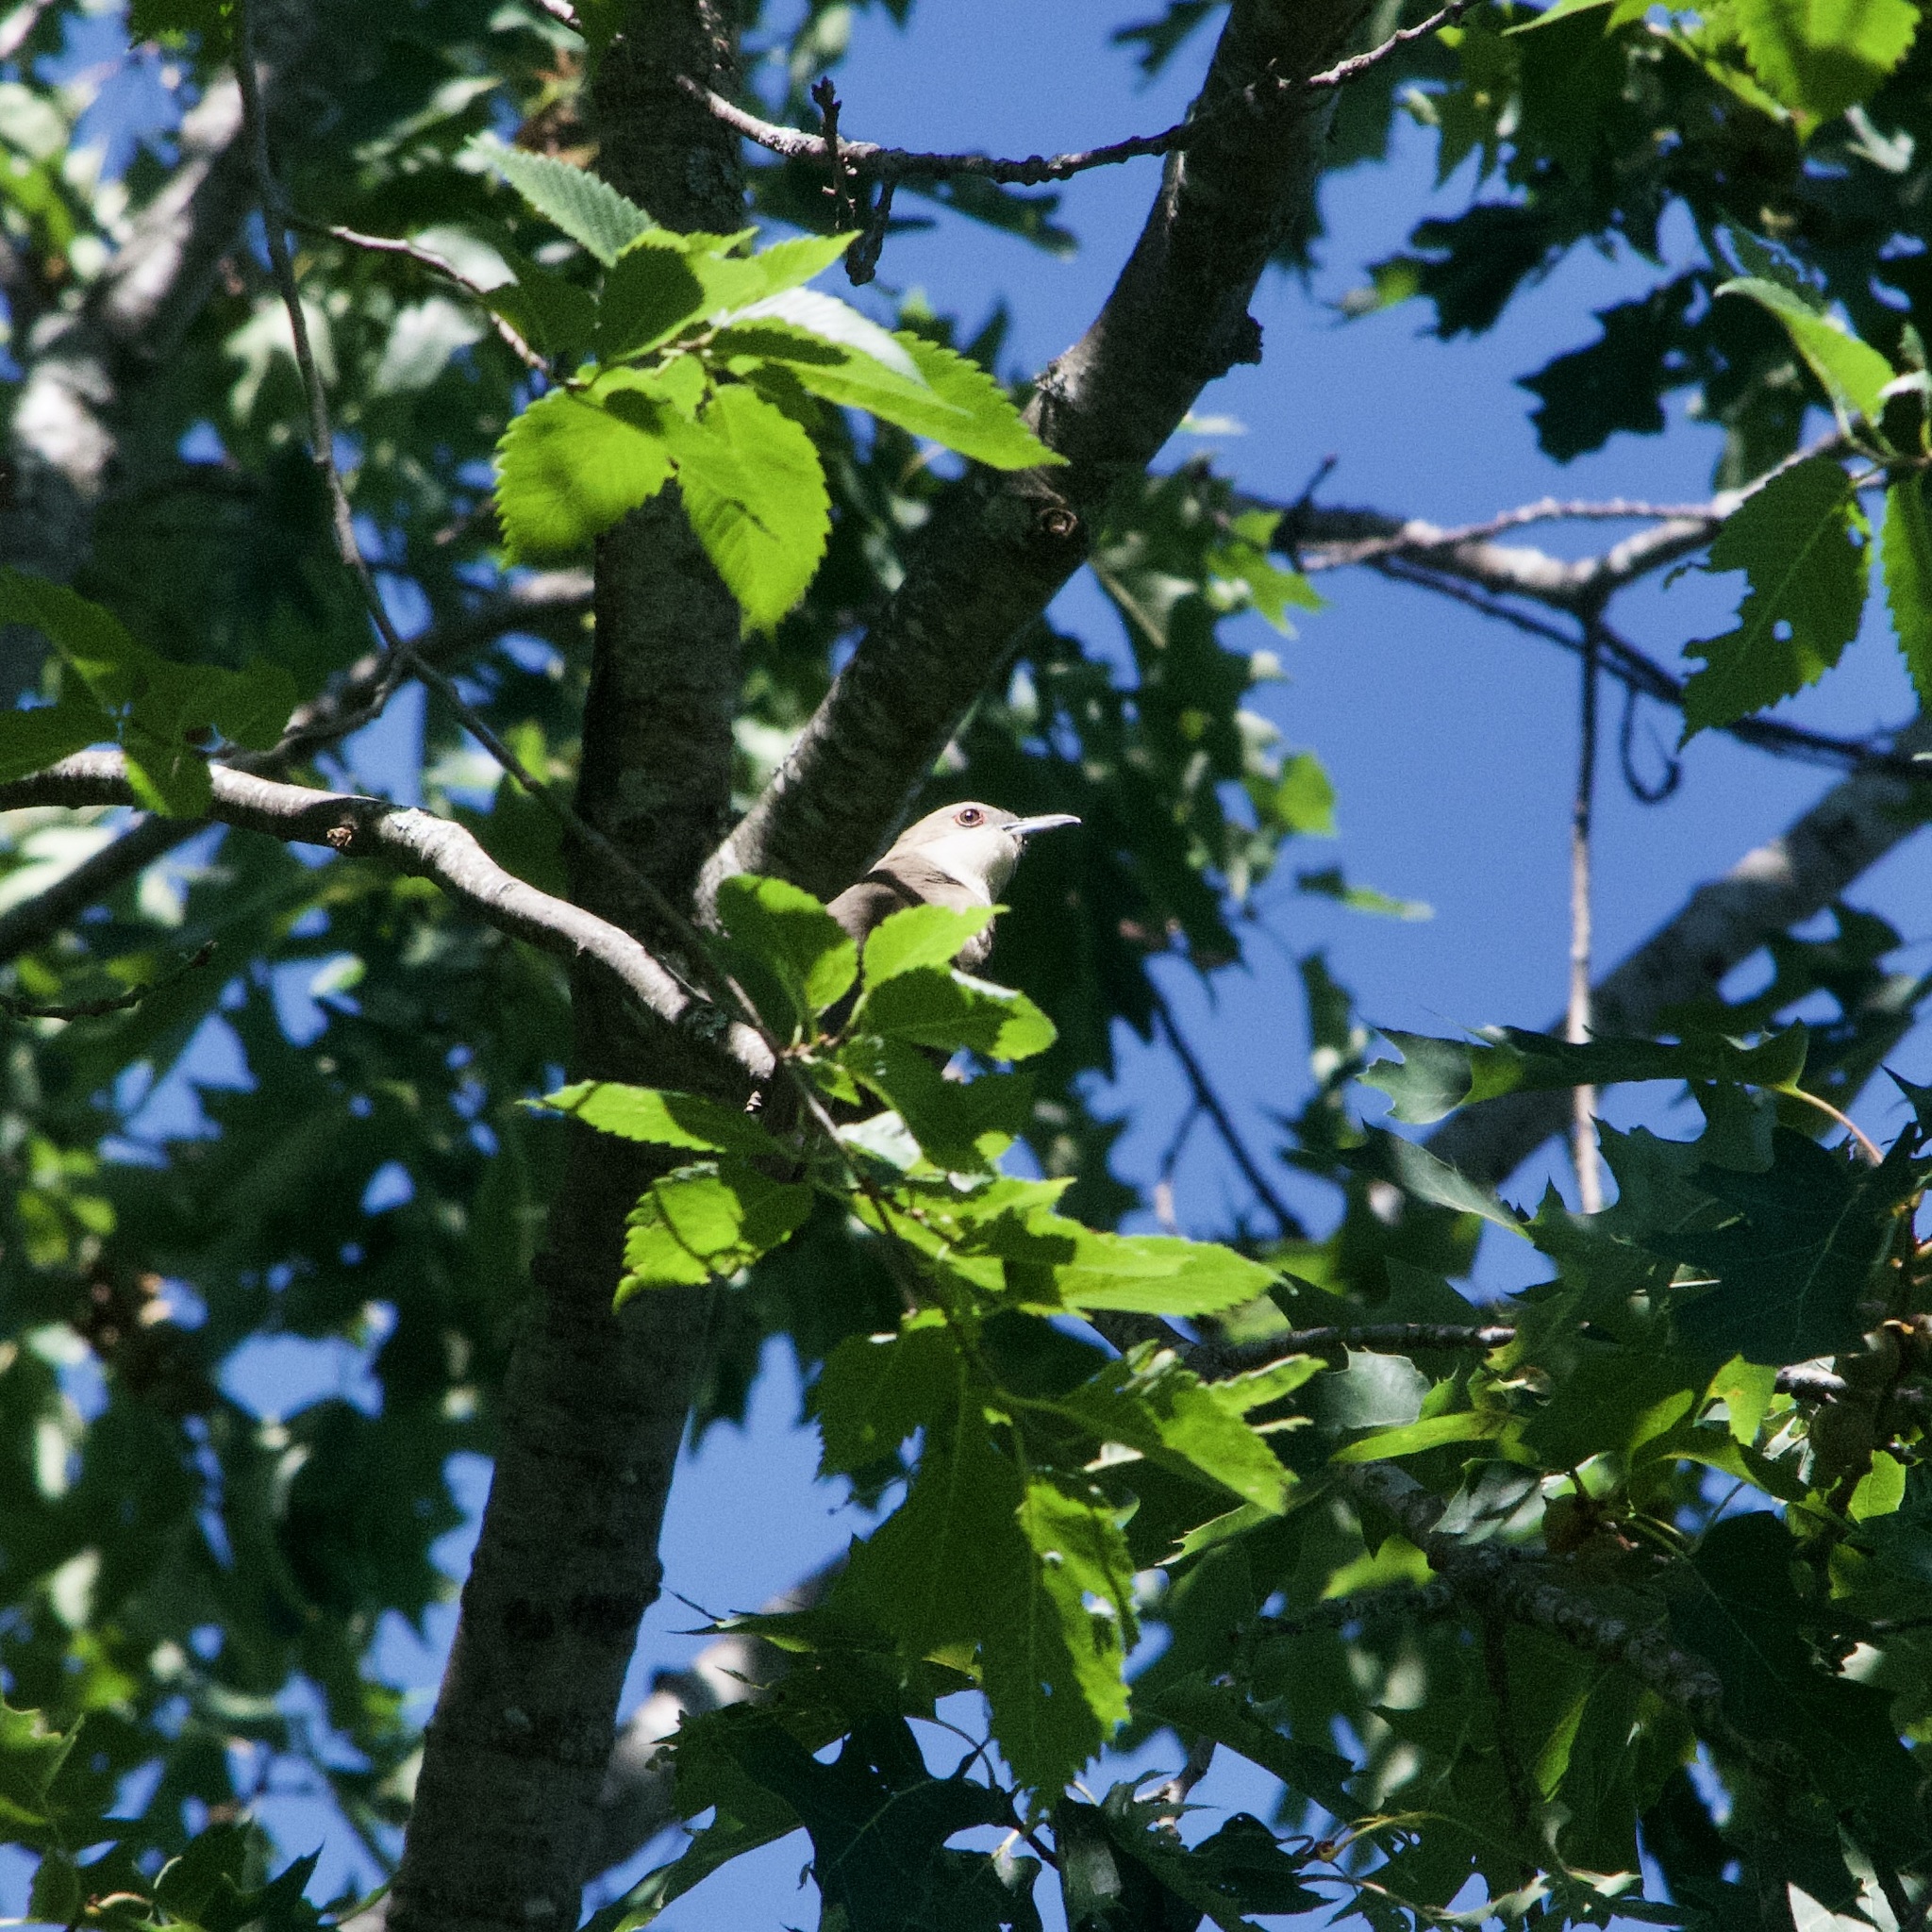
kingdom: Animalia
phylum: Chordata
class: Aves
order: Cuculiformes
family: Cuculidae
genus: Coccyzus
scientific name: Coccyzus erythropthalmus
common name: Black-billed cuckoo
